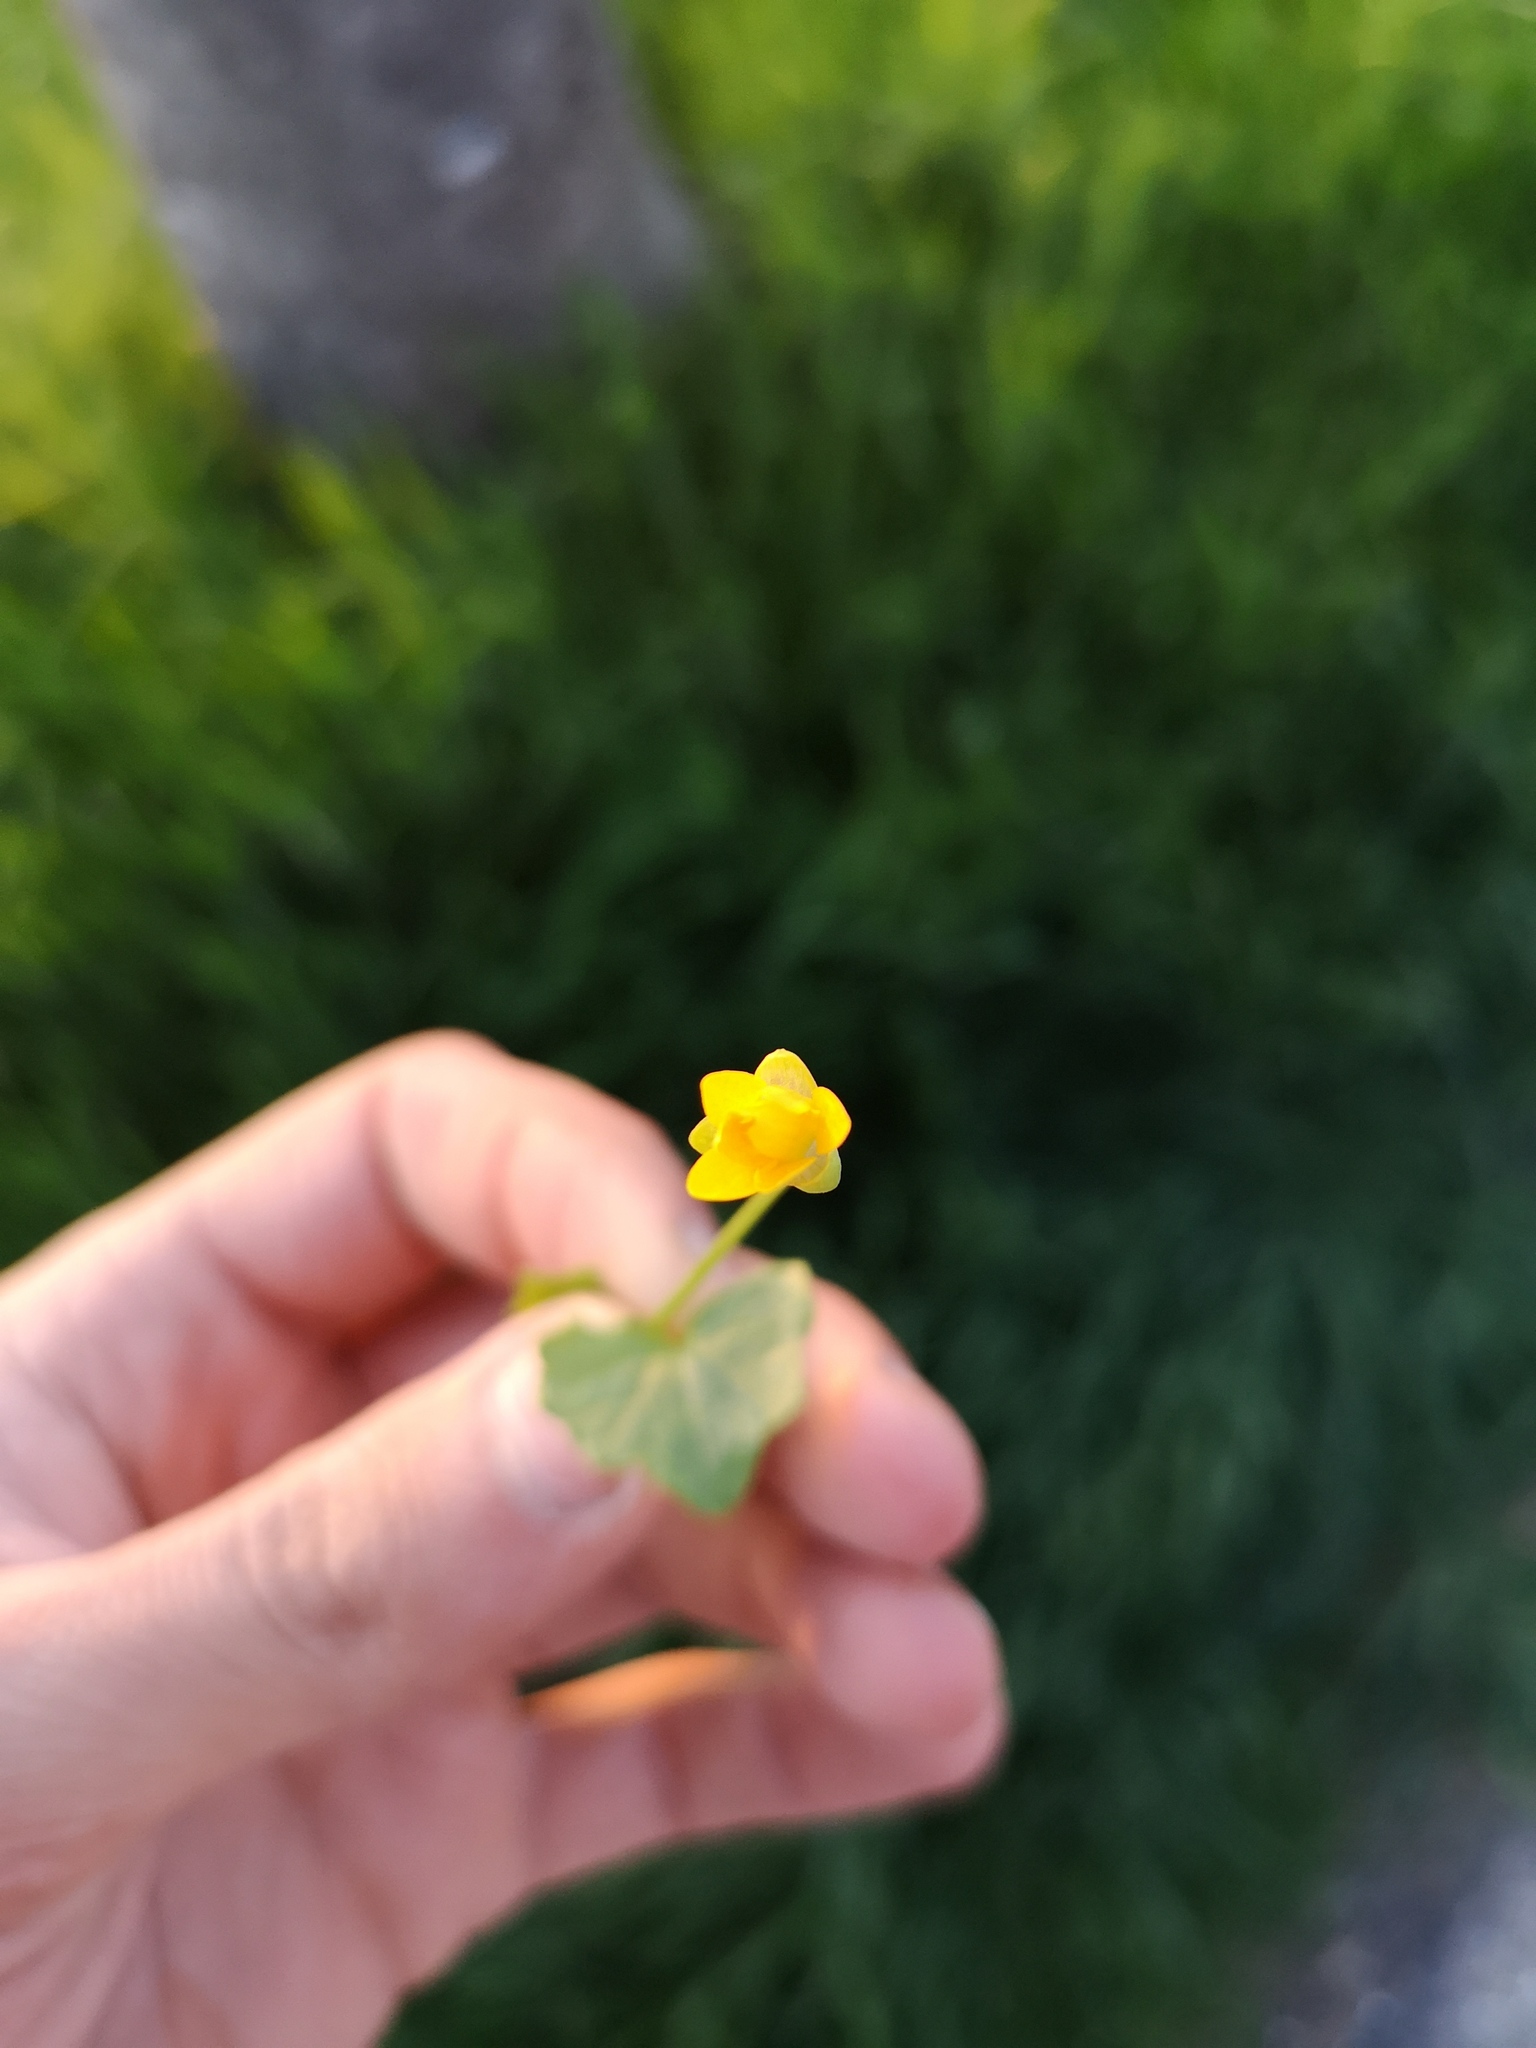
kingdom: Plantae
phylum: Tracheophyta
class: Magnoliopsida
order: Ranunculales
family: Ranunculaceae
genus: Ficaria
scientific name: Ficaria verna
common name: Lesser celandine
